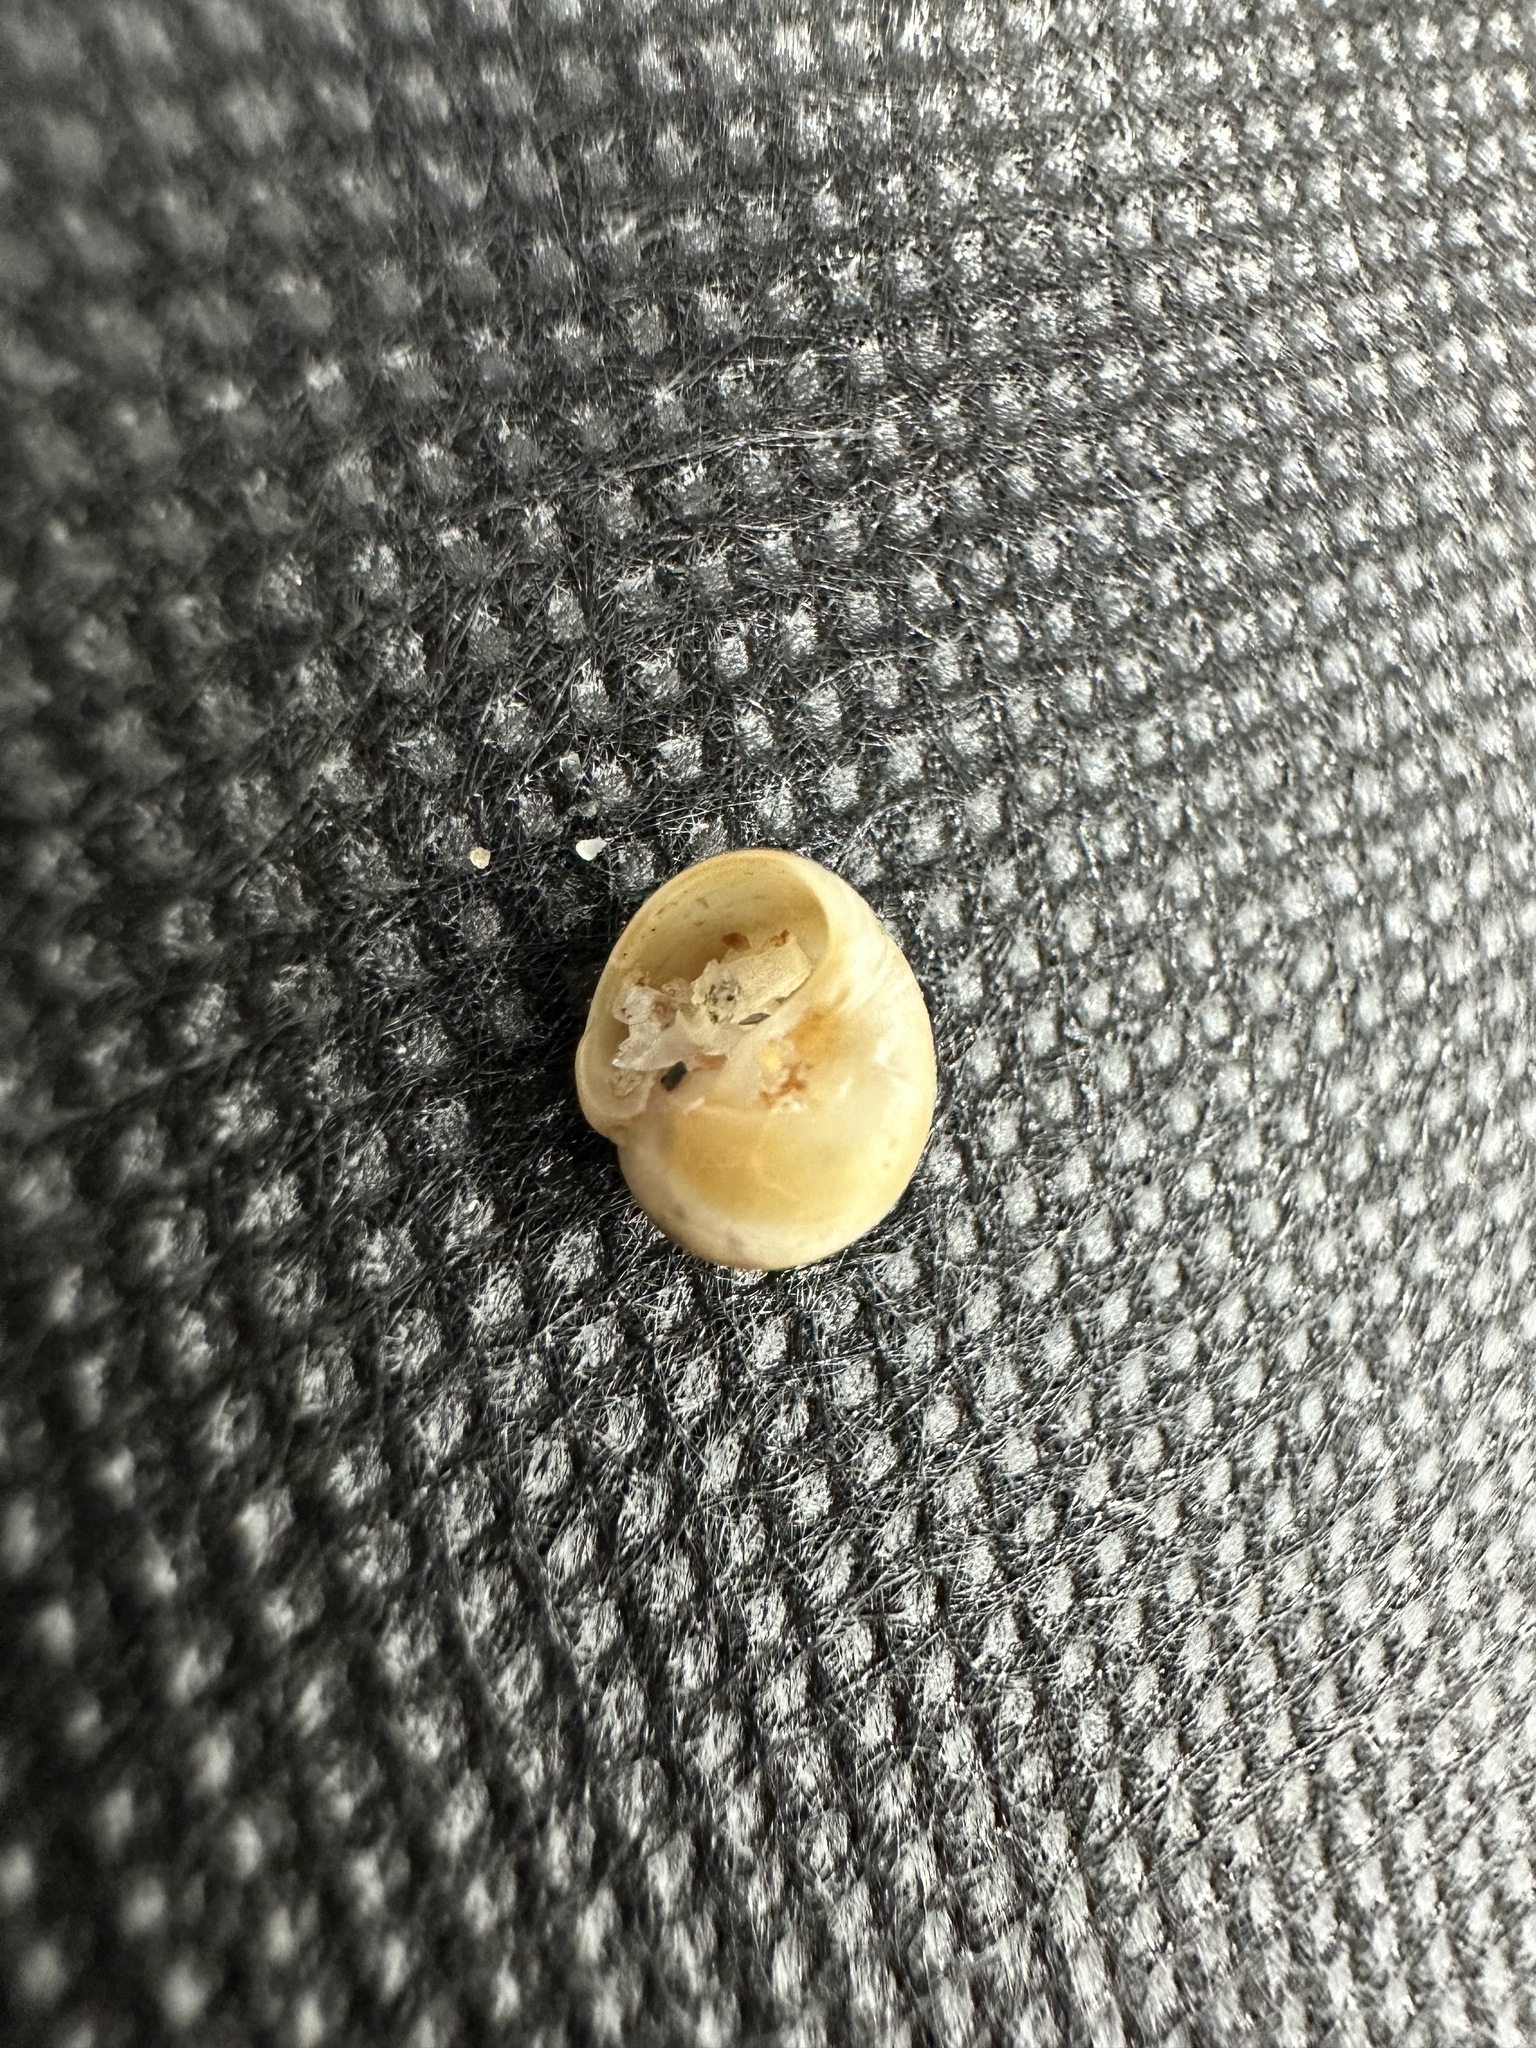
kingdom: Animalia
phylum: Mollusca
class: Gastropoda
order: Littorinimorpha
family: Naticidae
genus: Euspira
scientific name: Euspira heros
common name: Common northern moonsnail
